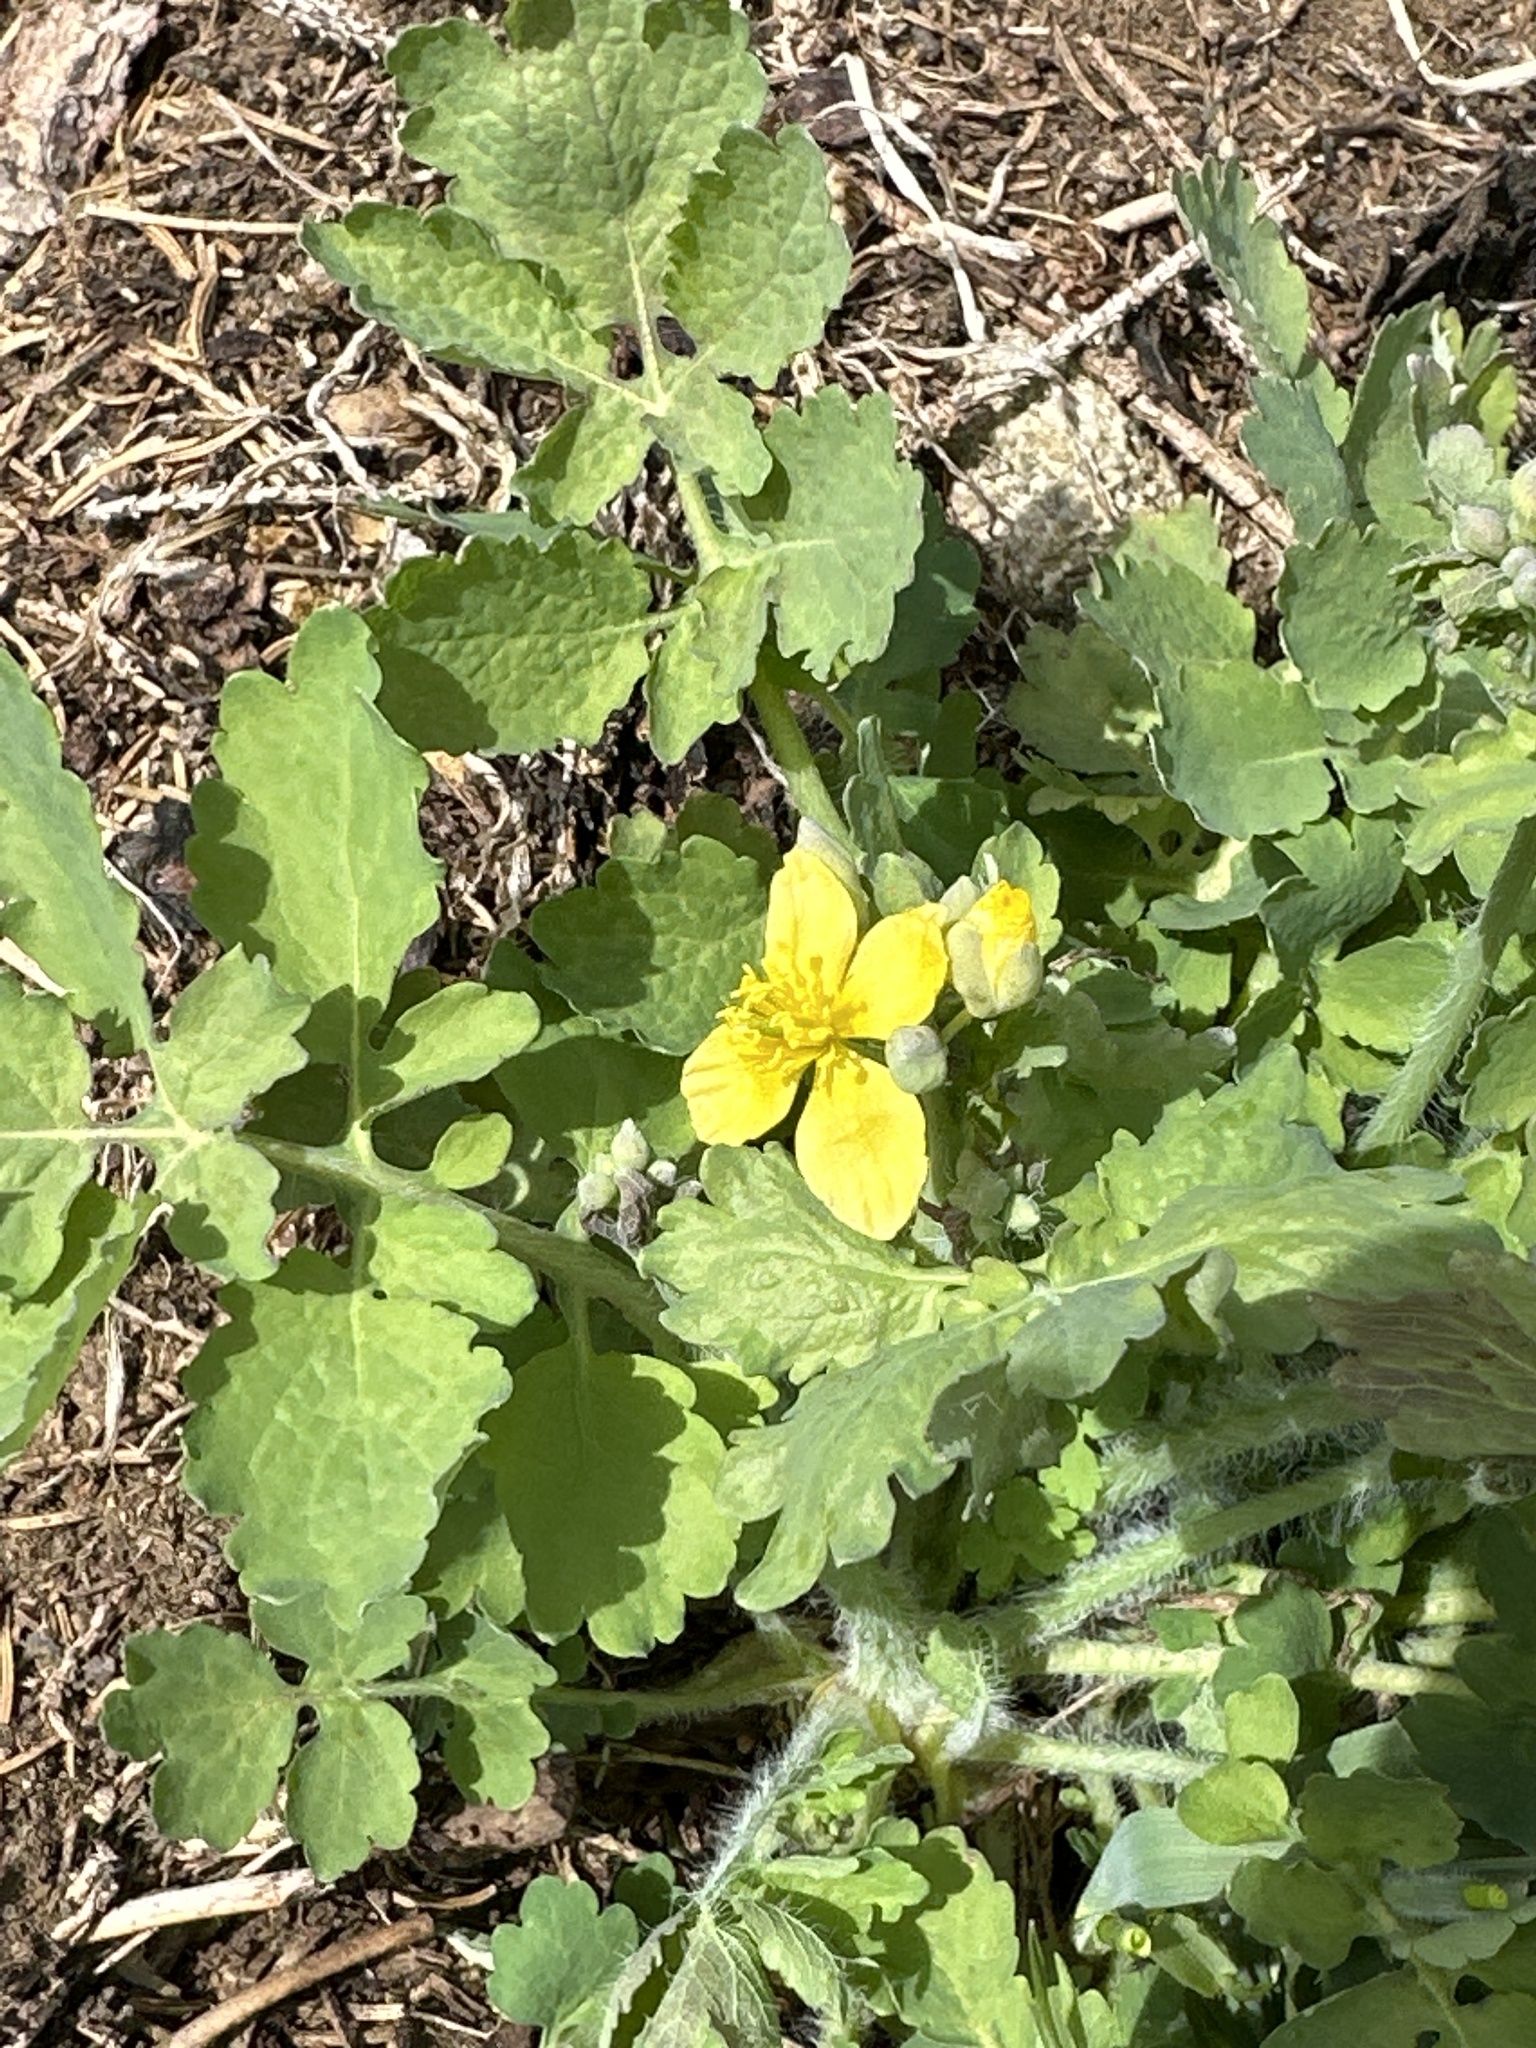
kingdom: Plantae
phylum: Tracheophyta
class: Magnoliopsida
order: Ranunculales
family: Papaveraceae
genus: Chelidonium
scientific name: Chelidonium majus
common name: Greater celandine
